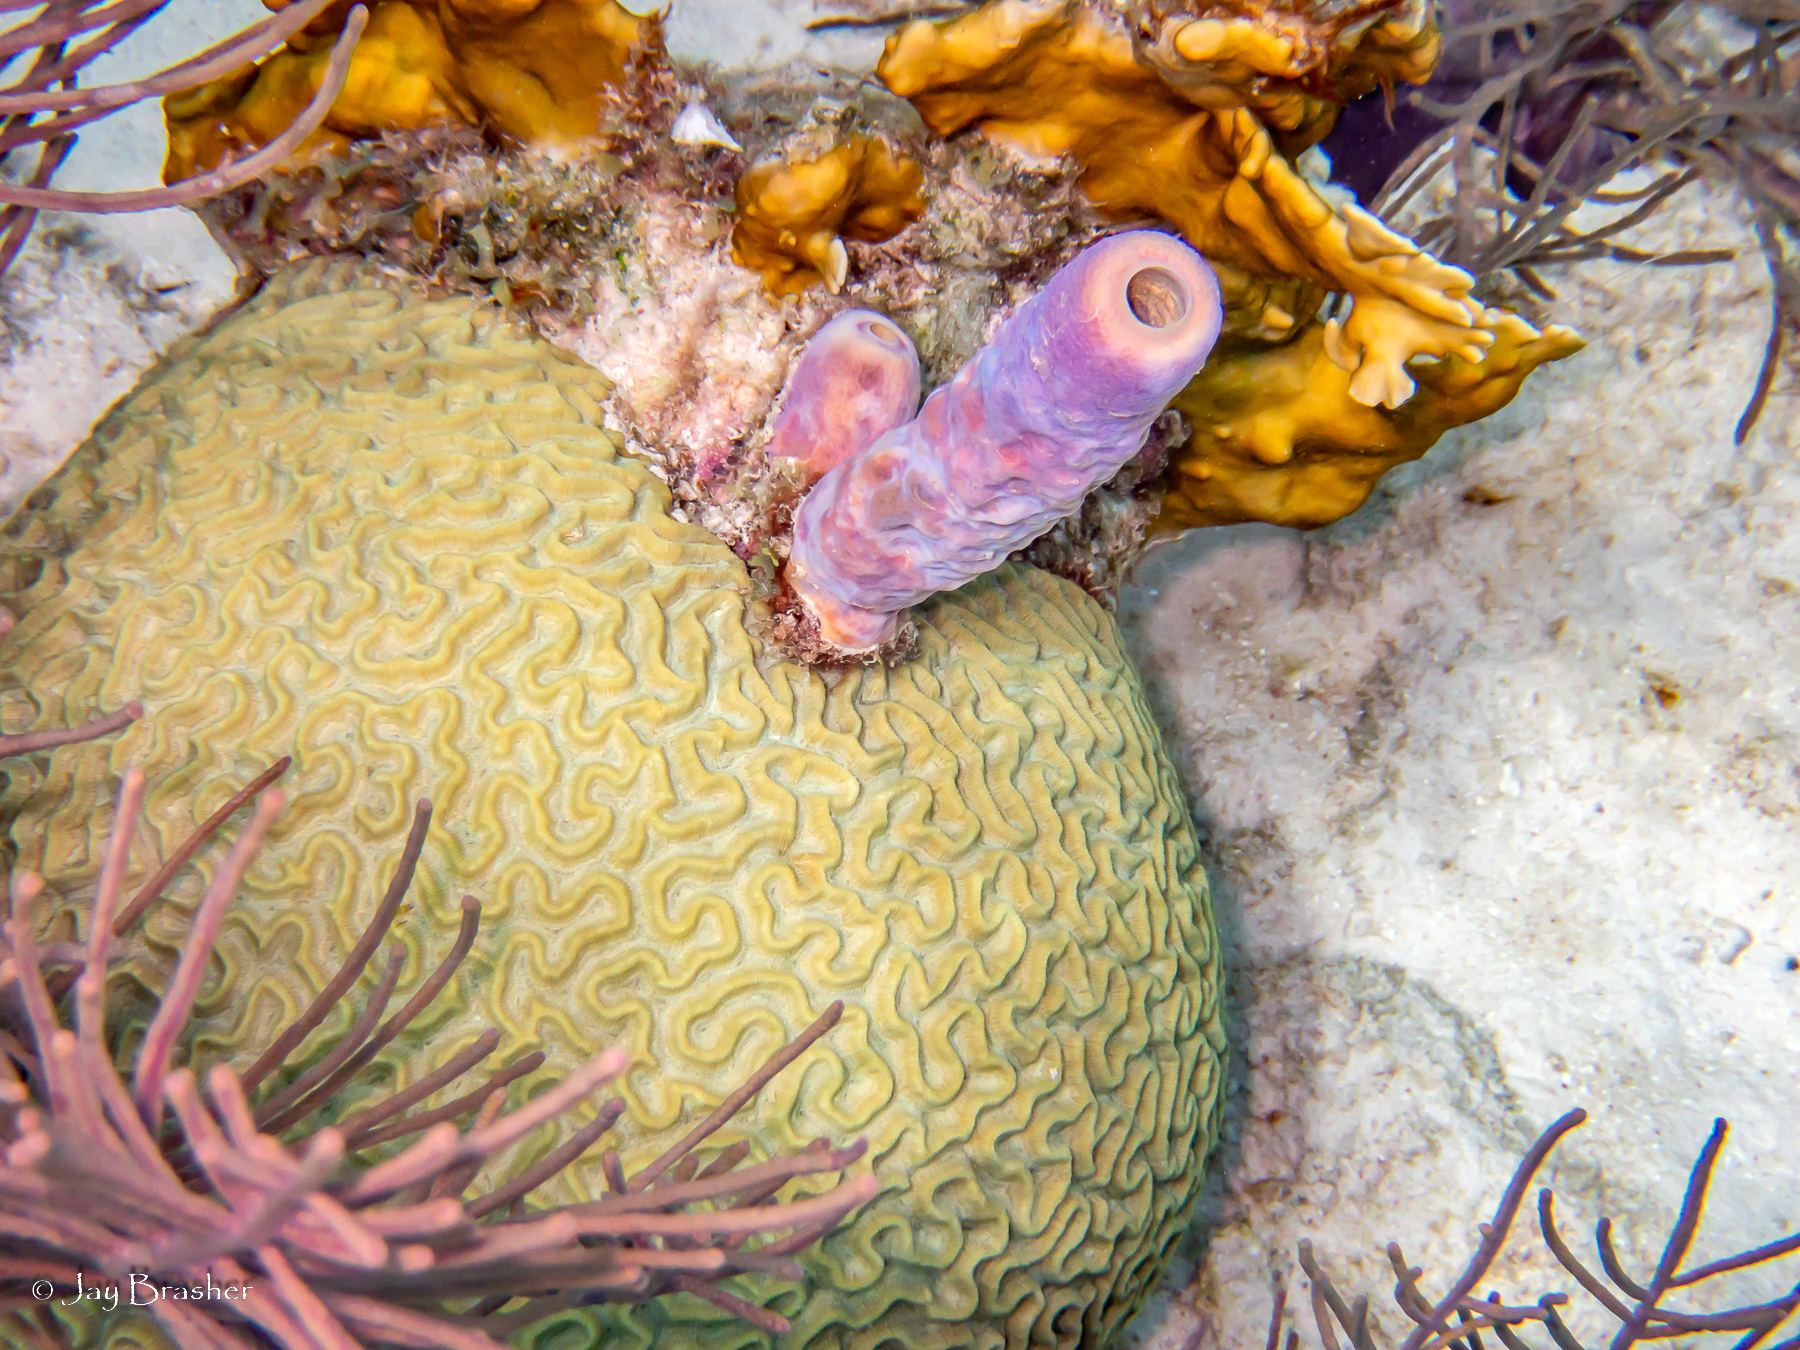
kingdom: Animalia
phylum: Porifera
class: Demospongiae
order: Verongiida
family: Aplysinidae
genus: Aplysina
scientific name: Aplysina archeri
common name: Stove-pipe sponge
